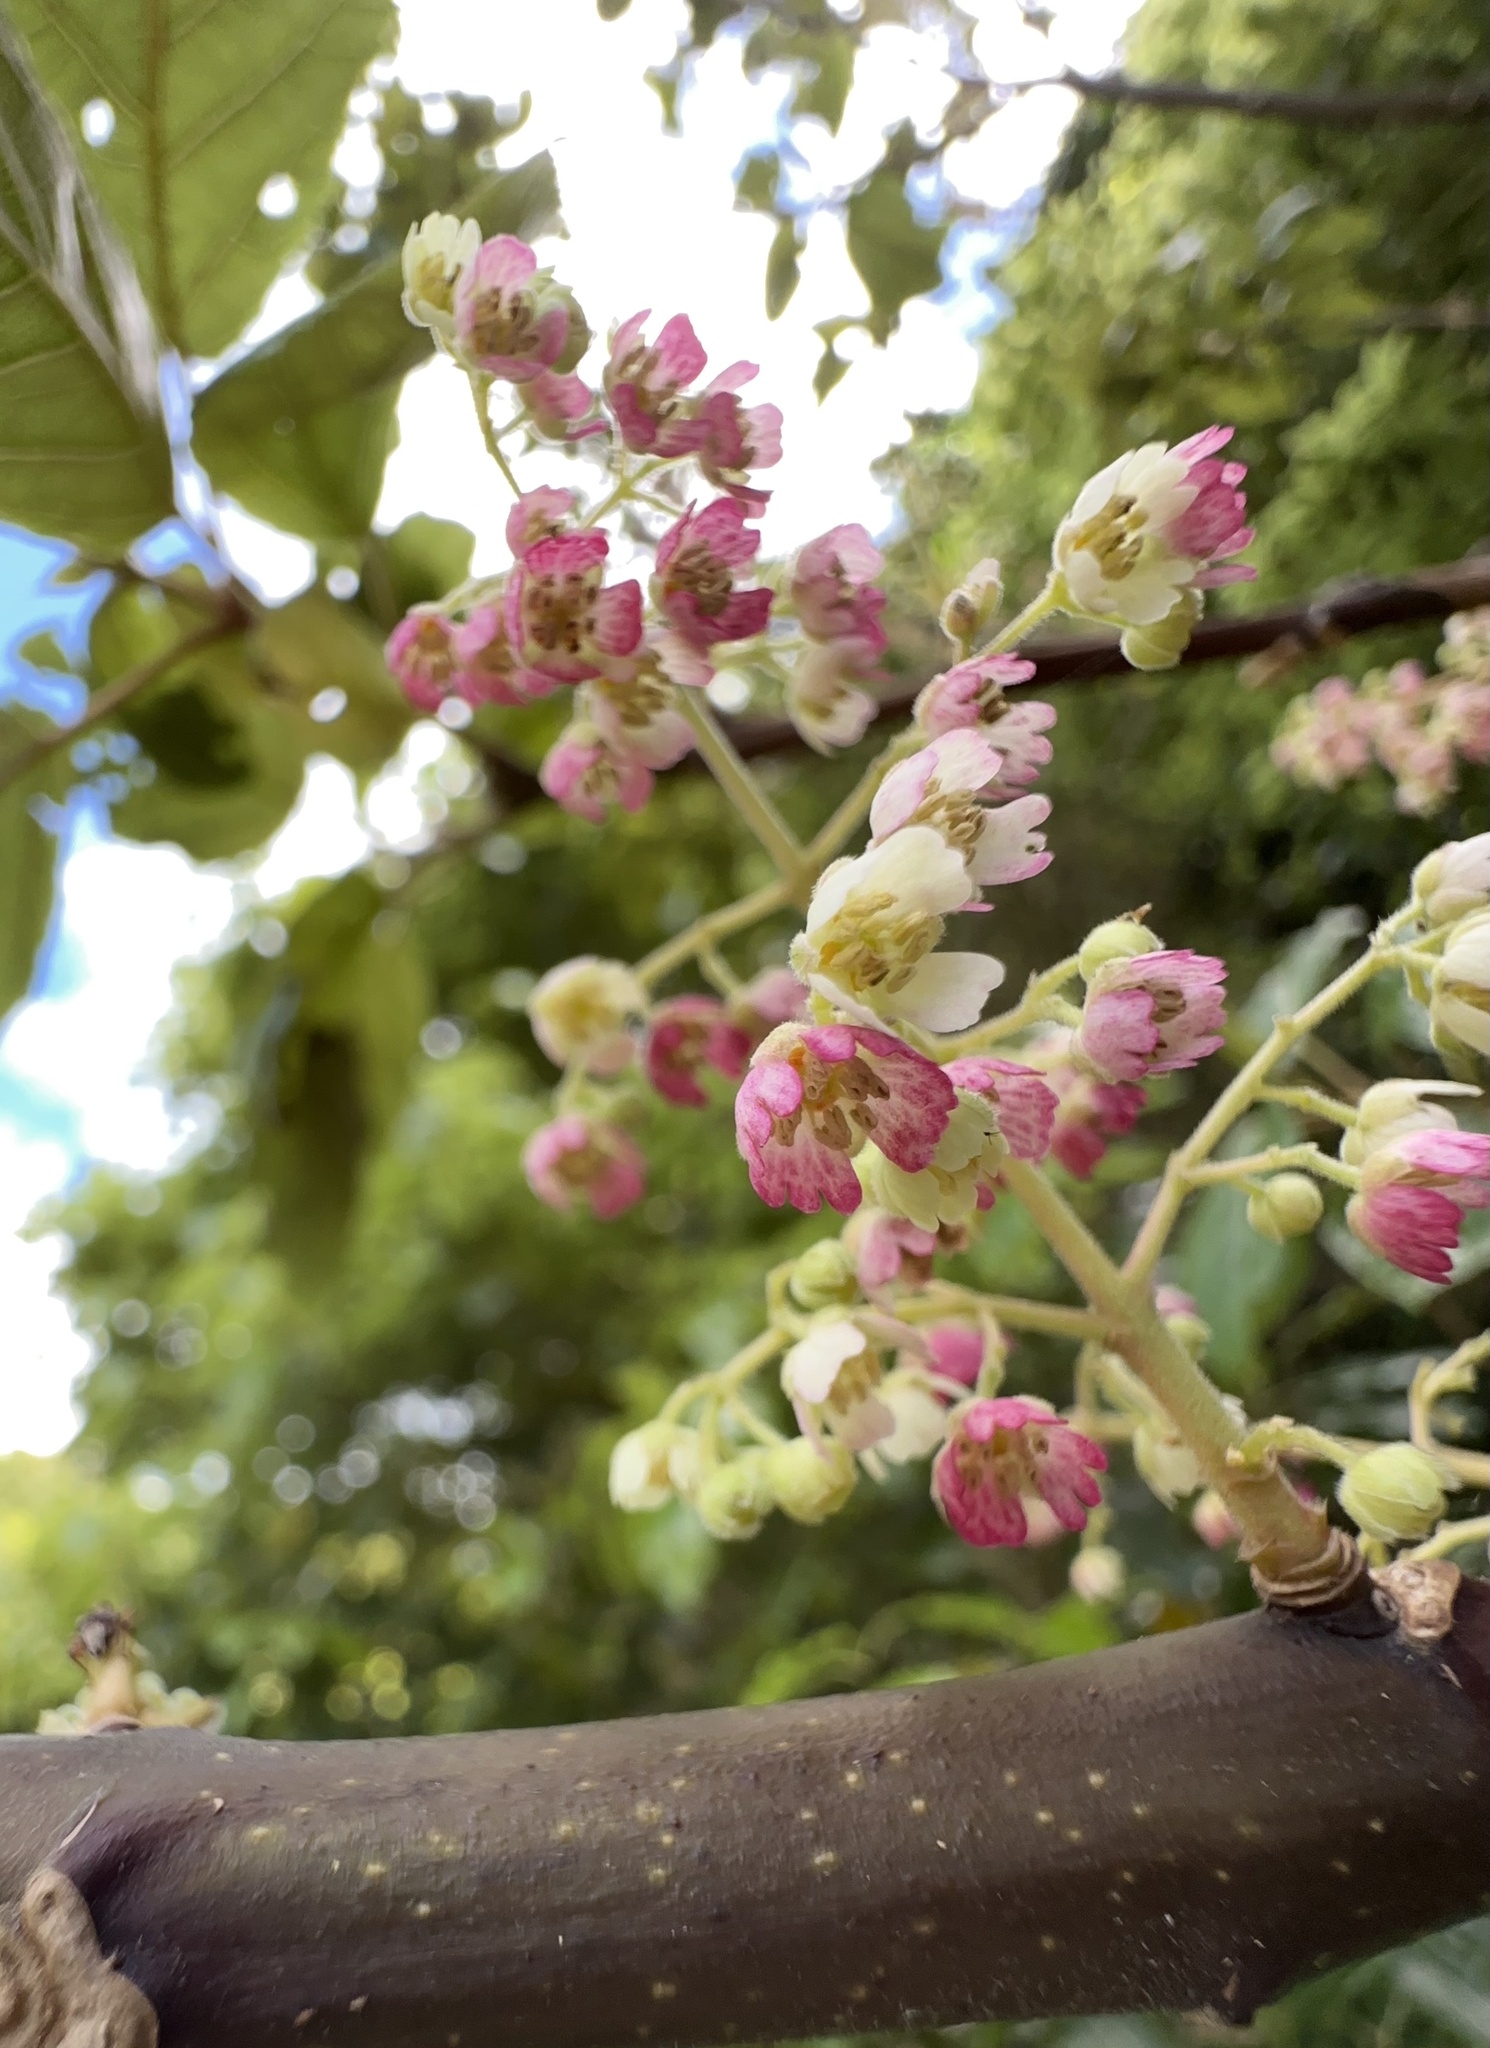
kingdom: Plantae
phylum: Tracheophyta
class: Magnoliopsida
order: Oxalidales
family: Elaeocarpaceae
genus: Aristotelia
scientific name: Aristotelia serrata
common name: New zealand wineberry
